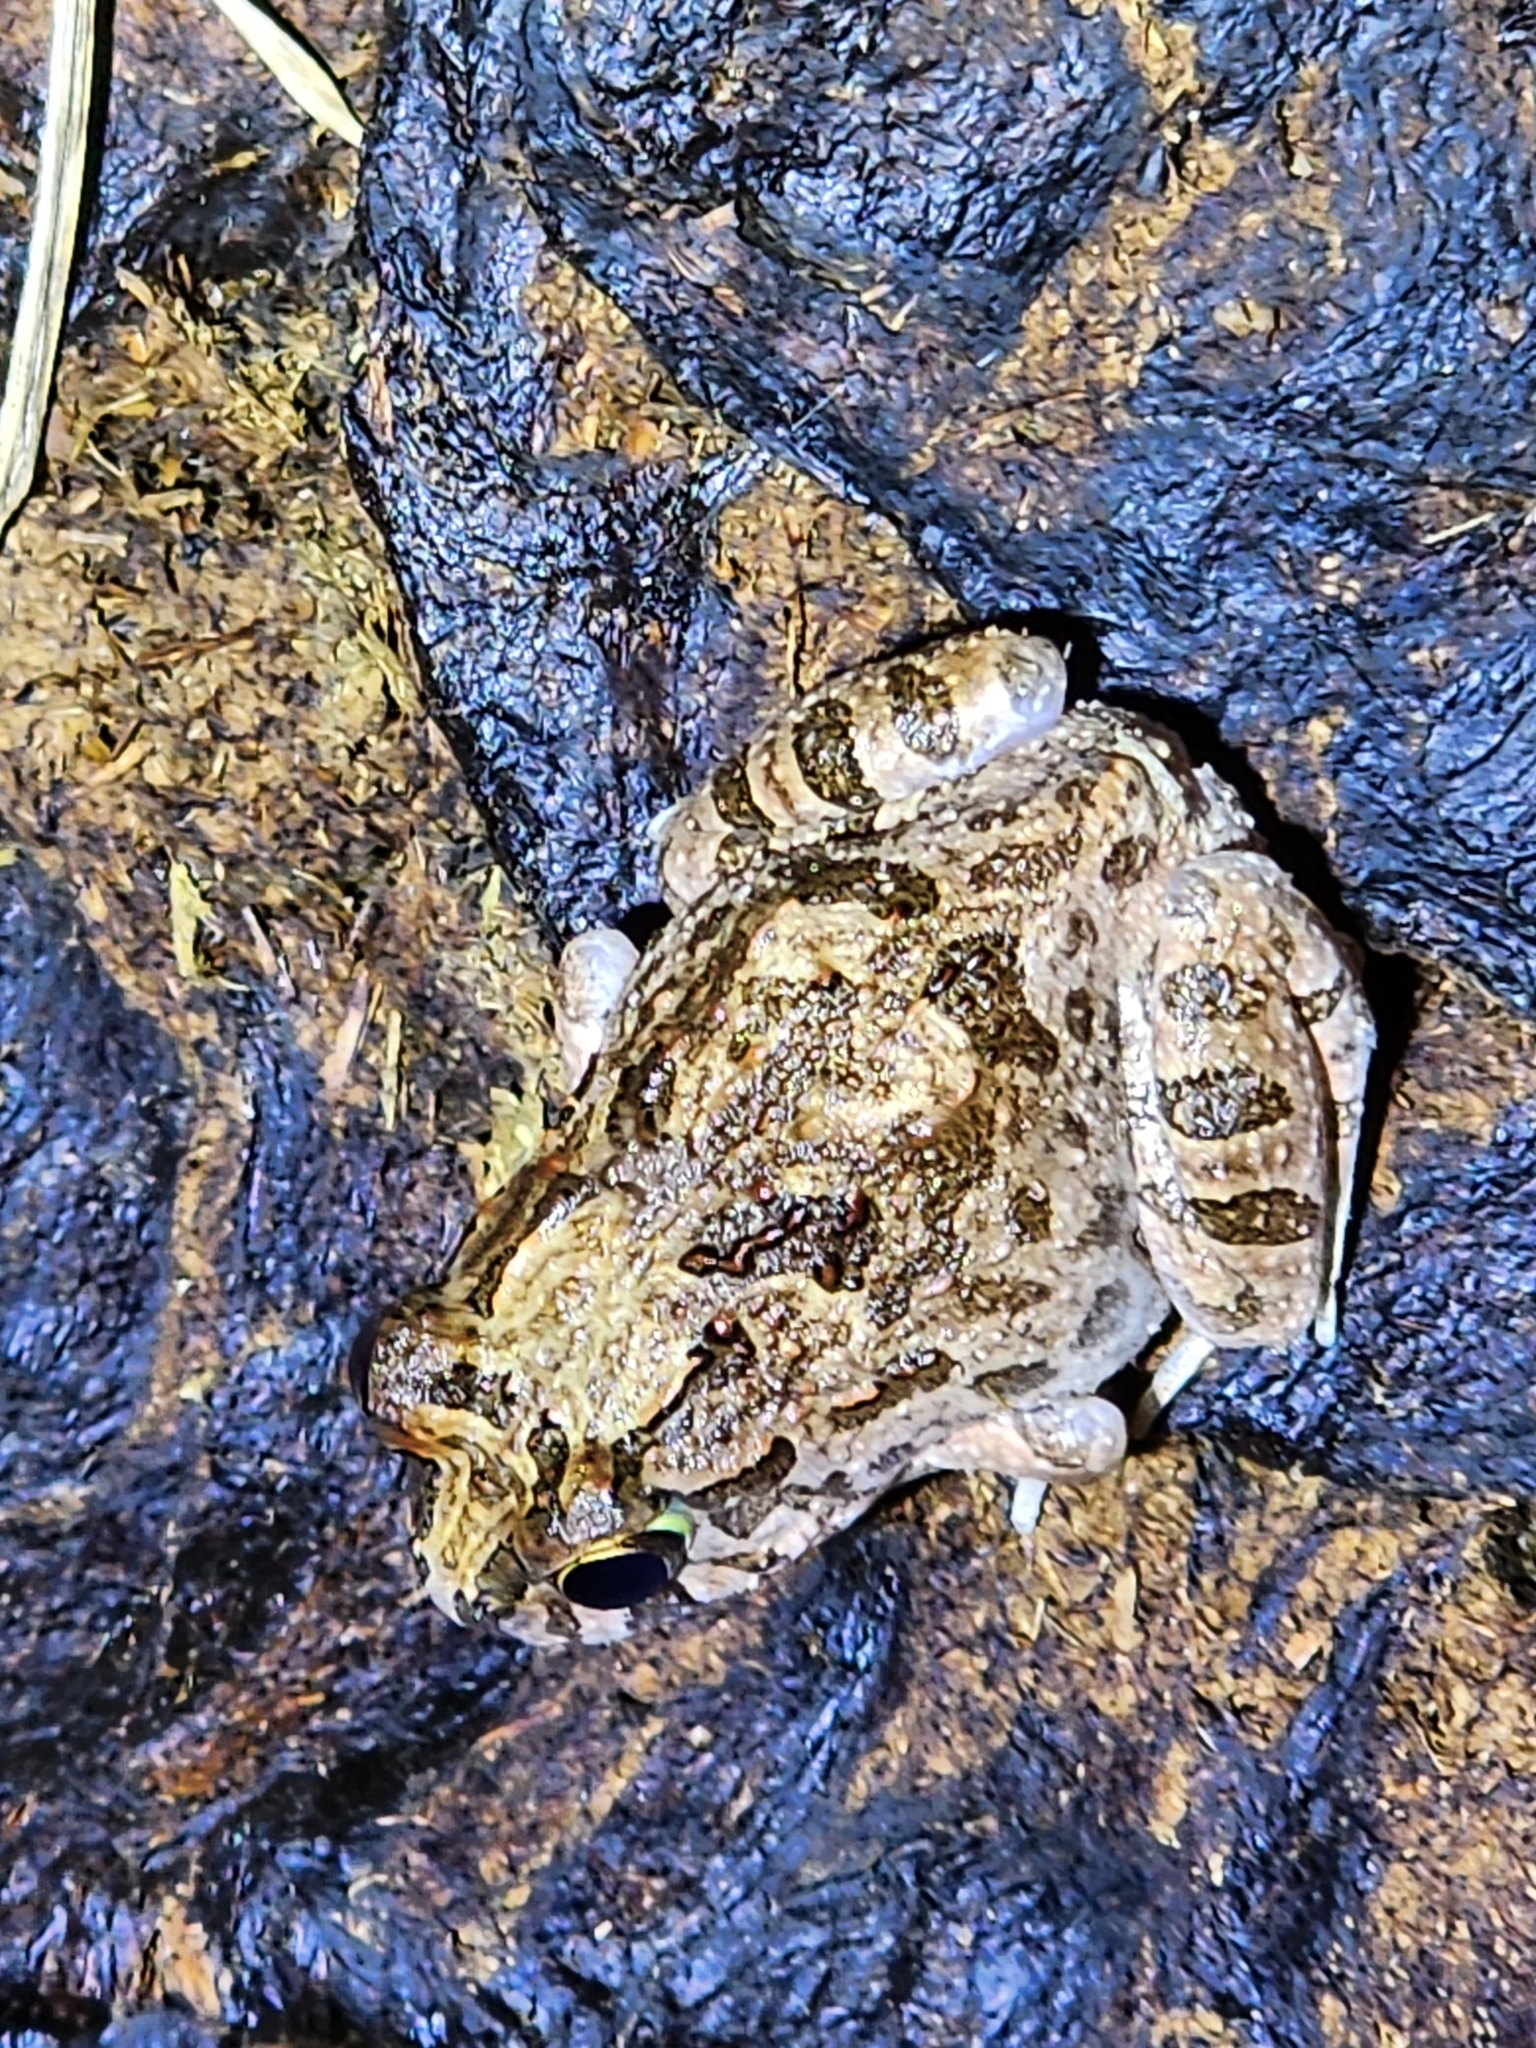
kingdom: Animalia
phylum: Chordata
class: Amphibia
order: Anura
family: Limnodynastidae
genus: Platyplectrum
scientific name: Platyplectrum ornatum
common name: Ornate burrowing frog
